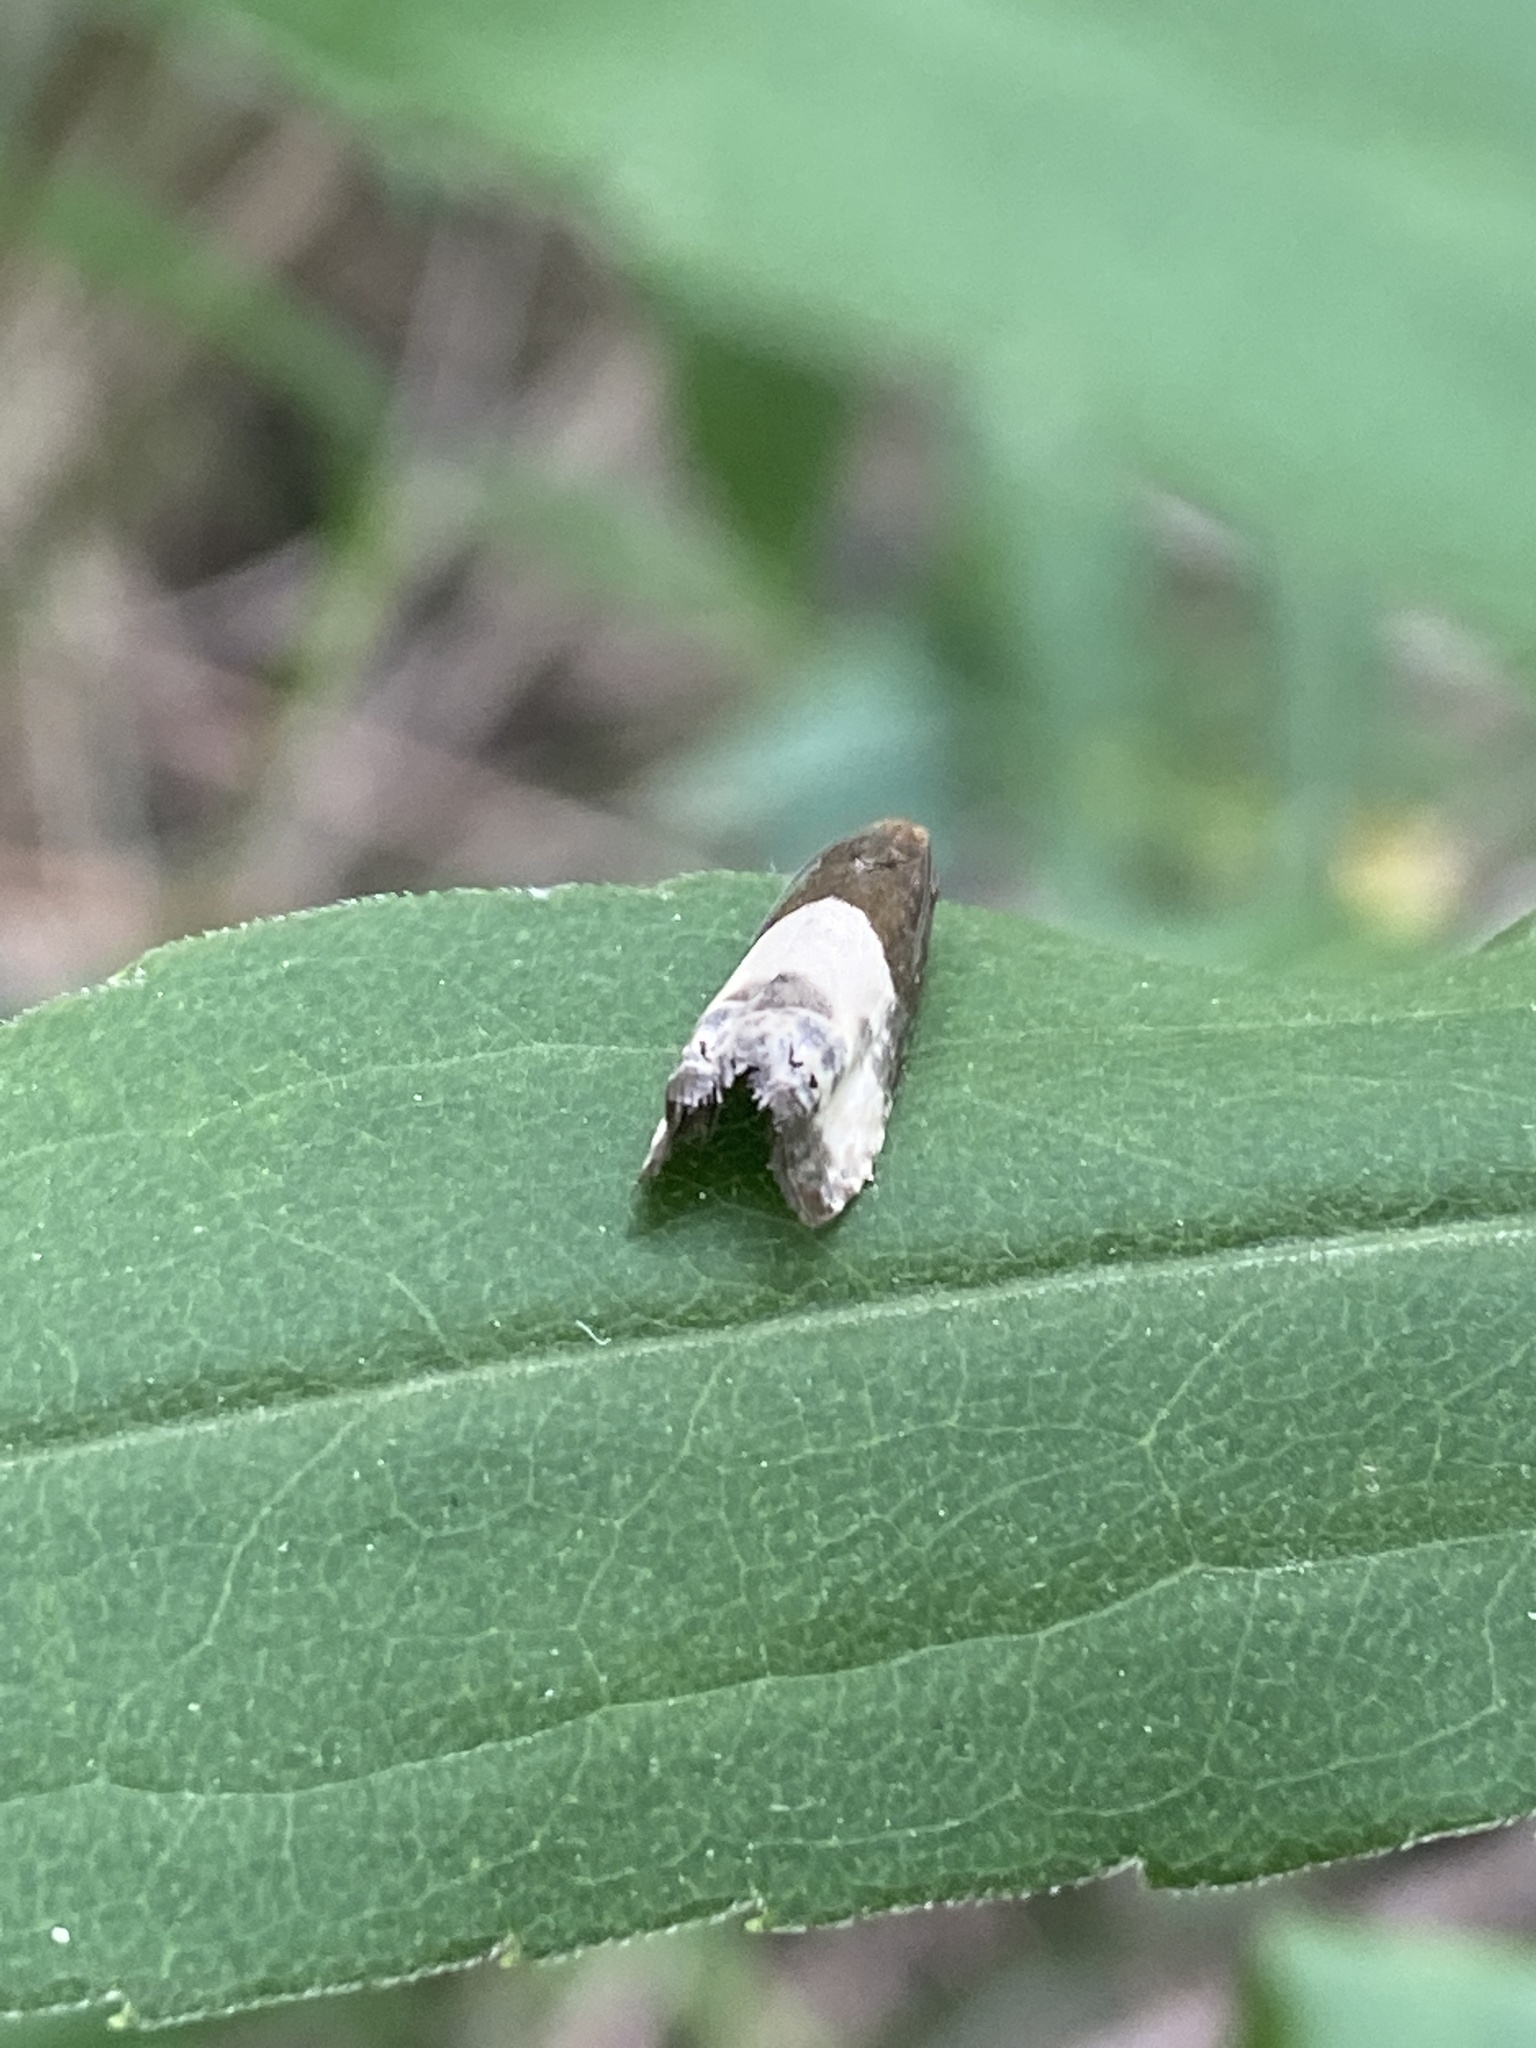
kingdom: Animalia
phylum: Arthropoda
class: Insecta
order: Lepidoptera
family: Tortricidae
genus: Notocelia
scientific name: Notocelia cynosbatella
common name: Yellow-faced bell moth
